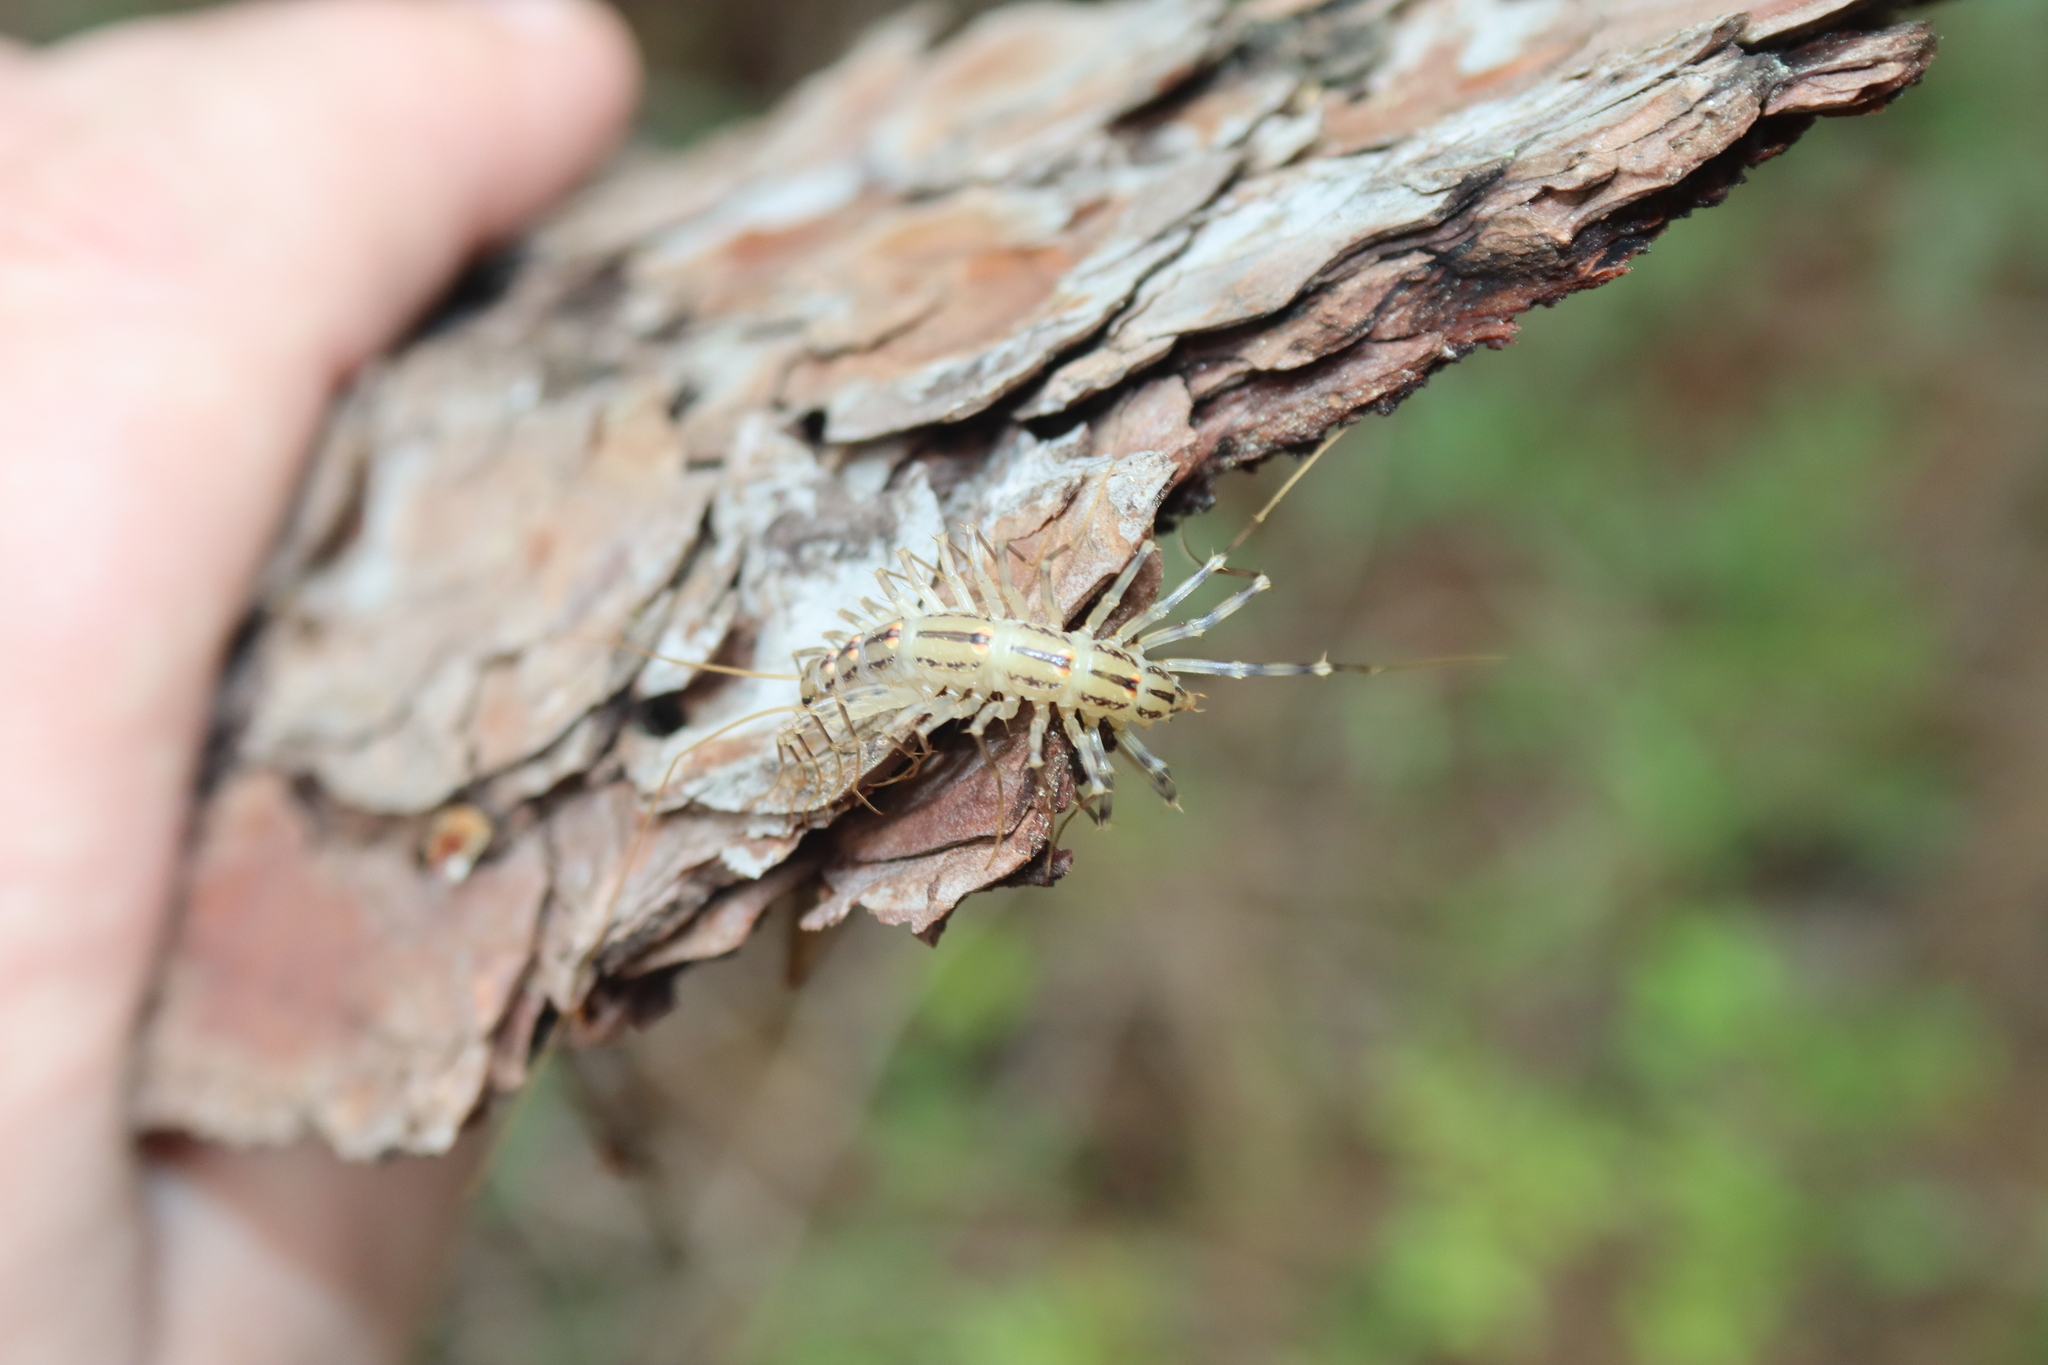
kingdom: Animalia
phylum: Arthropoda
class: Chilopoda
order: Scutigeromorpha
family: Scutigeridae
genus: Scutigera
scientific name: Scutigera coleoptrata
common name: House centipede
